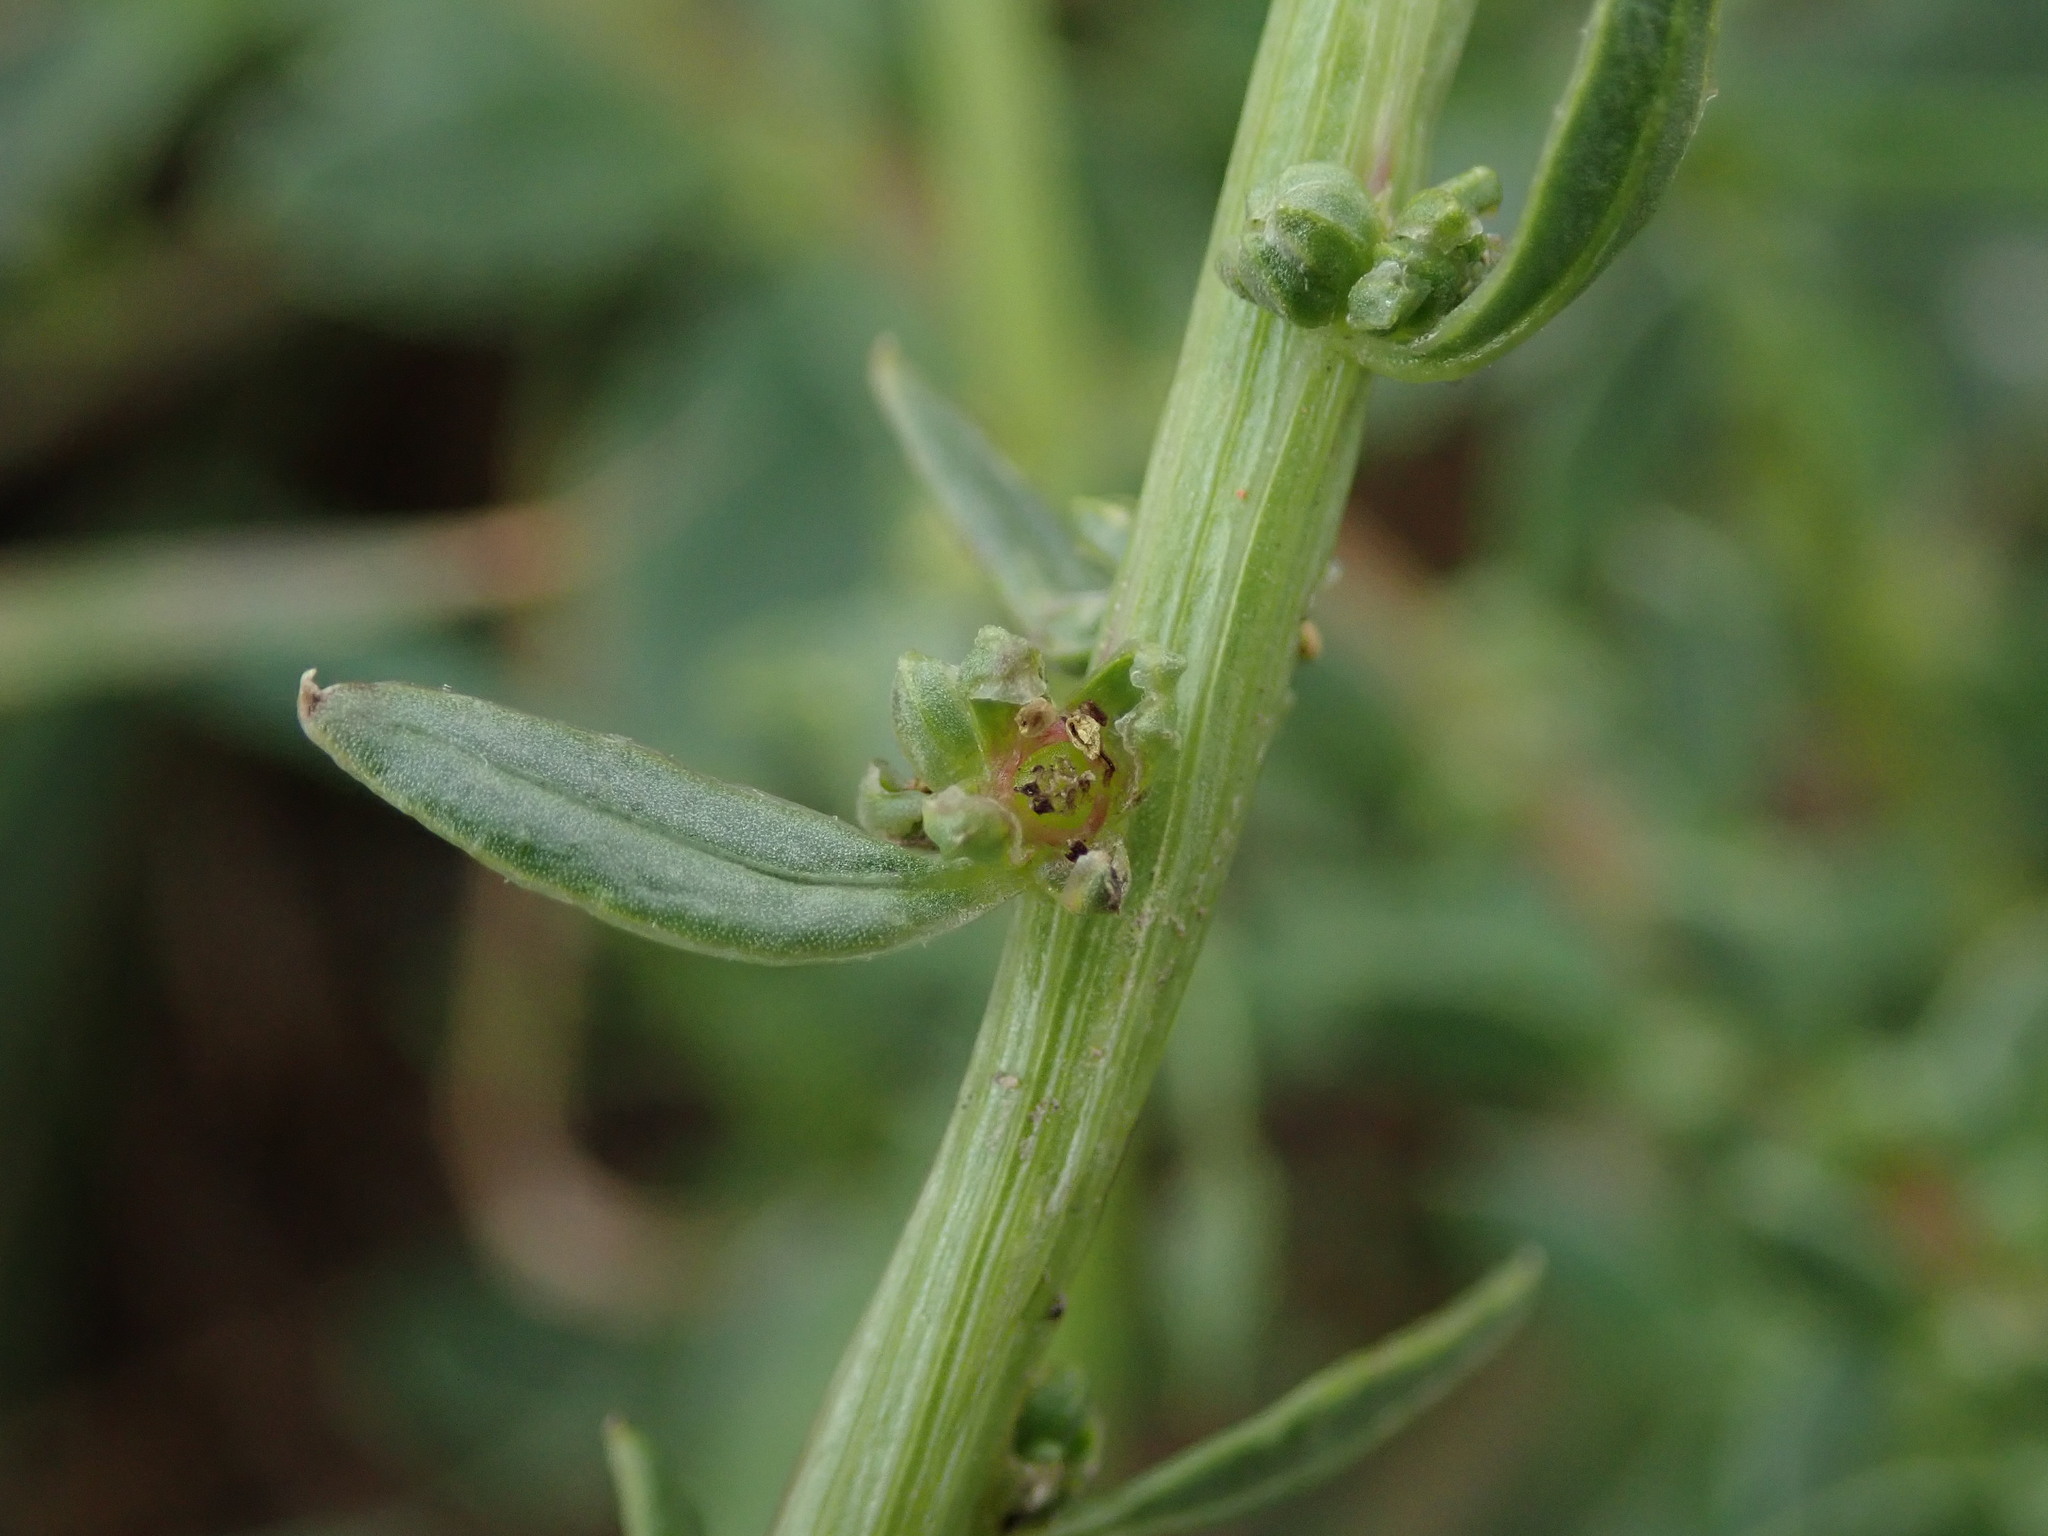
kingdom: Plantae
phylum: Tracheophyta
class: Magnoliopsida
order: Caryophyllales
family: Amaranthaceae
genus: Beta
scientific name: Beta vulgaris
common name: Beet
